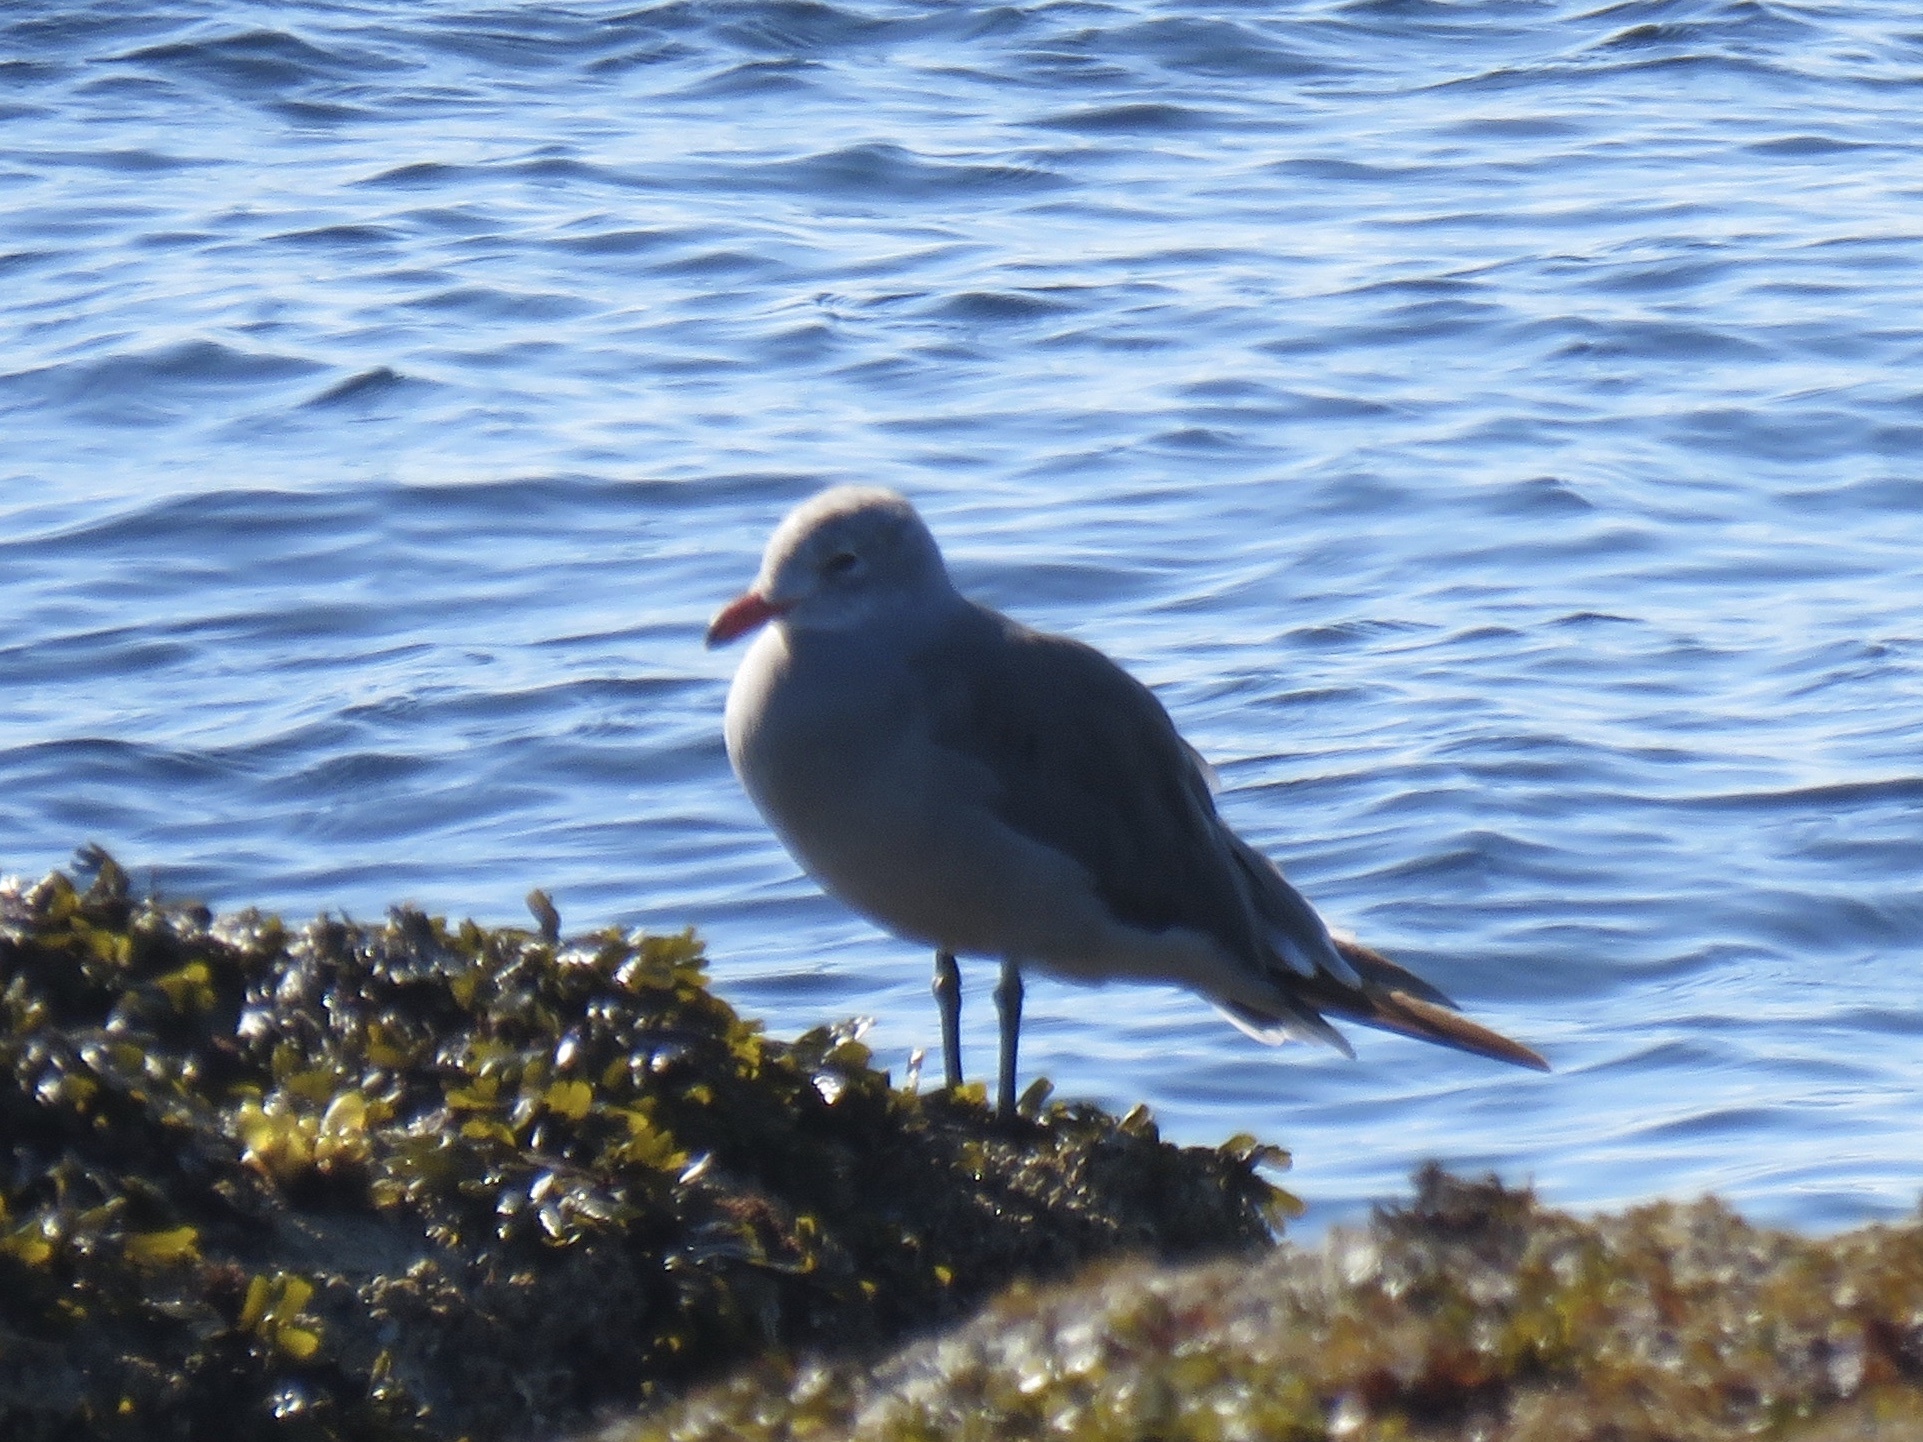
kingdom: Animalia
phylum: Chordata
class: Aves
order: Charadriiformes
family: Laridae
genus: Larus
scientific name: Larus heermanni
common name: Heermann's gull
